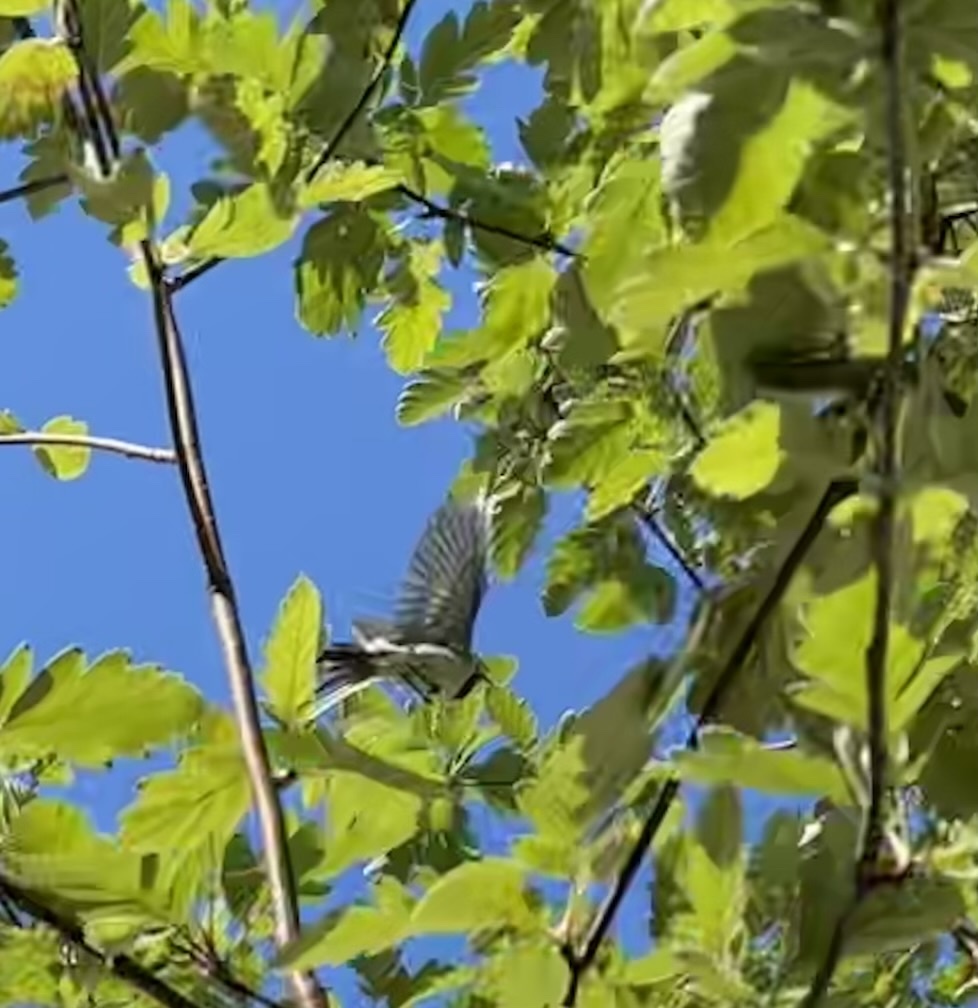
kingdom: Animalia
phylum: Chordata
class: Aves
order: Passeriformes
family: Motacillidae
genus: Motacilla
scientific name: Motacilla alba
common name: White wagtail
